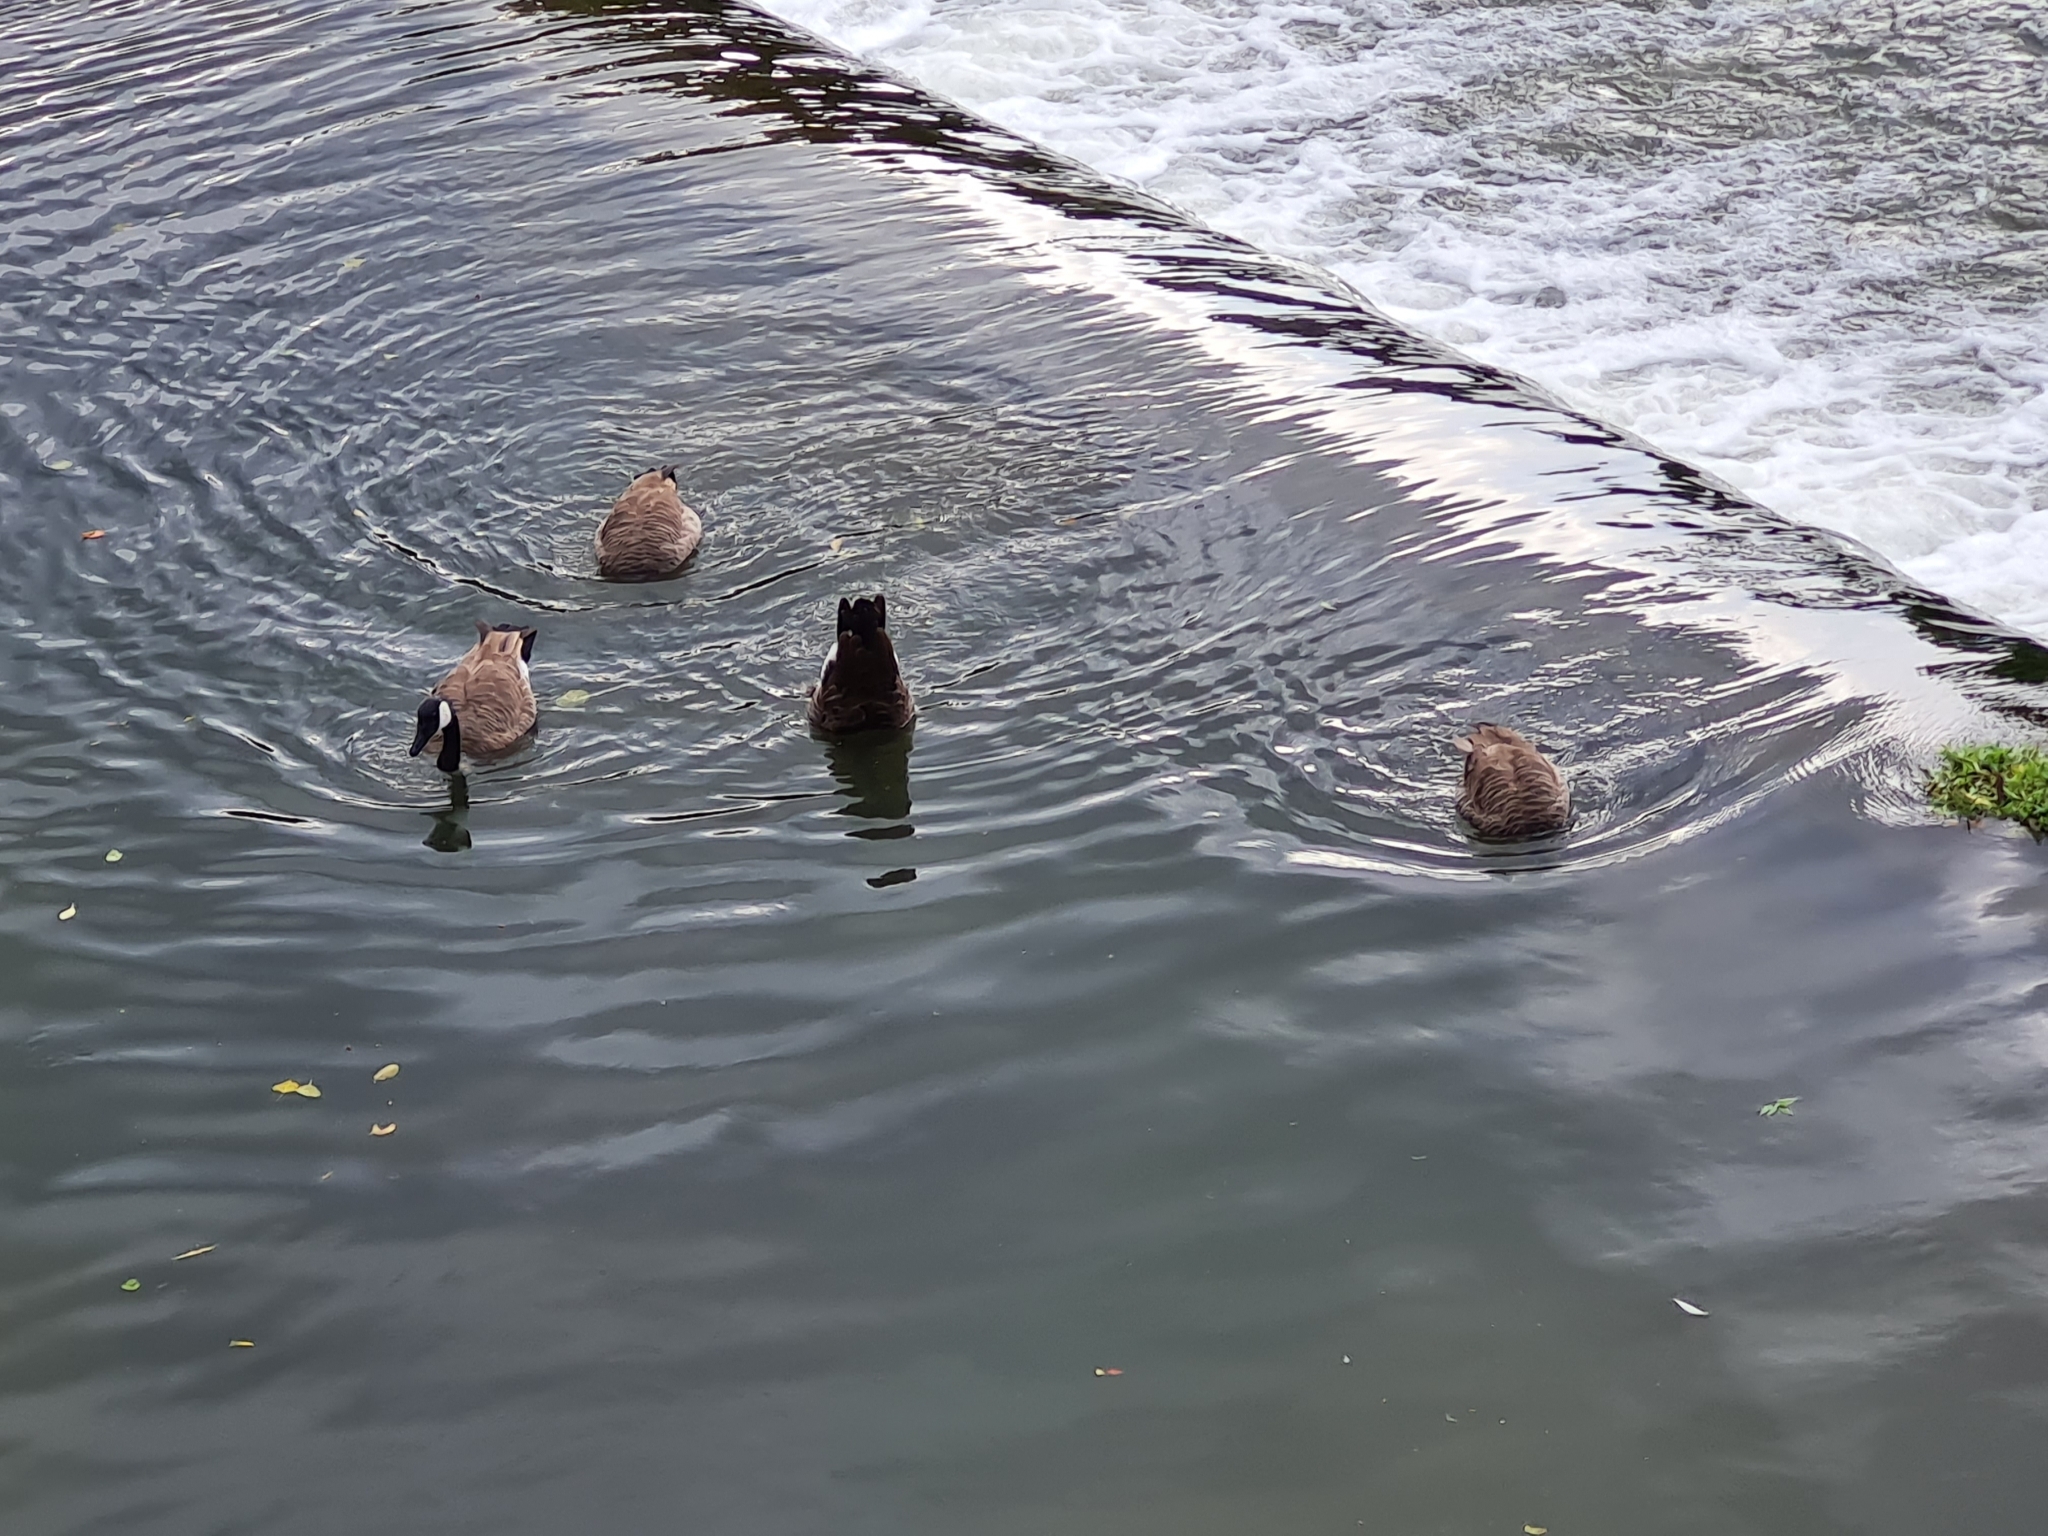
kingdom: Animalia
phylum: Chordata
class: Aves
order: Anseriformes
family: Anatidae
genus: Branta
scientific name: Branta canadensis
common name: Canada goose
